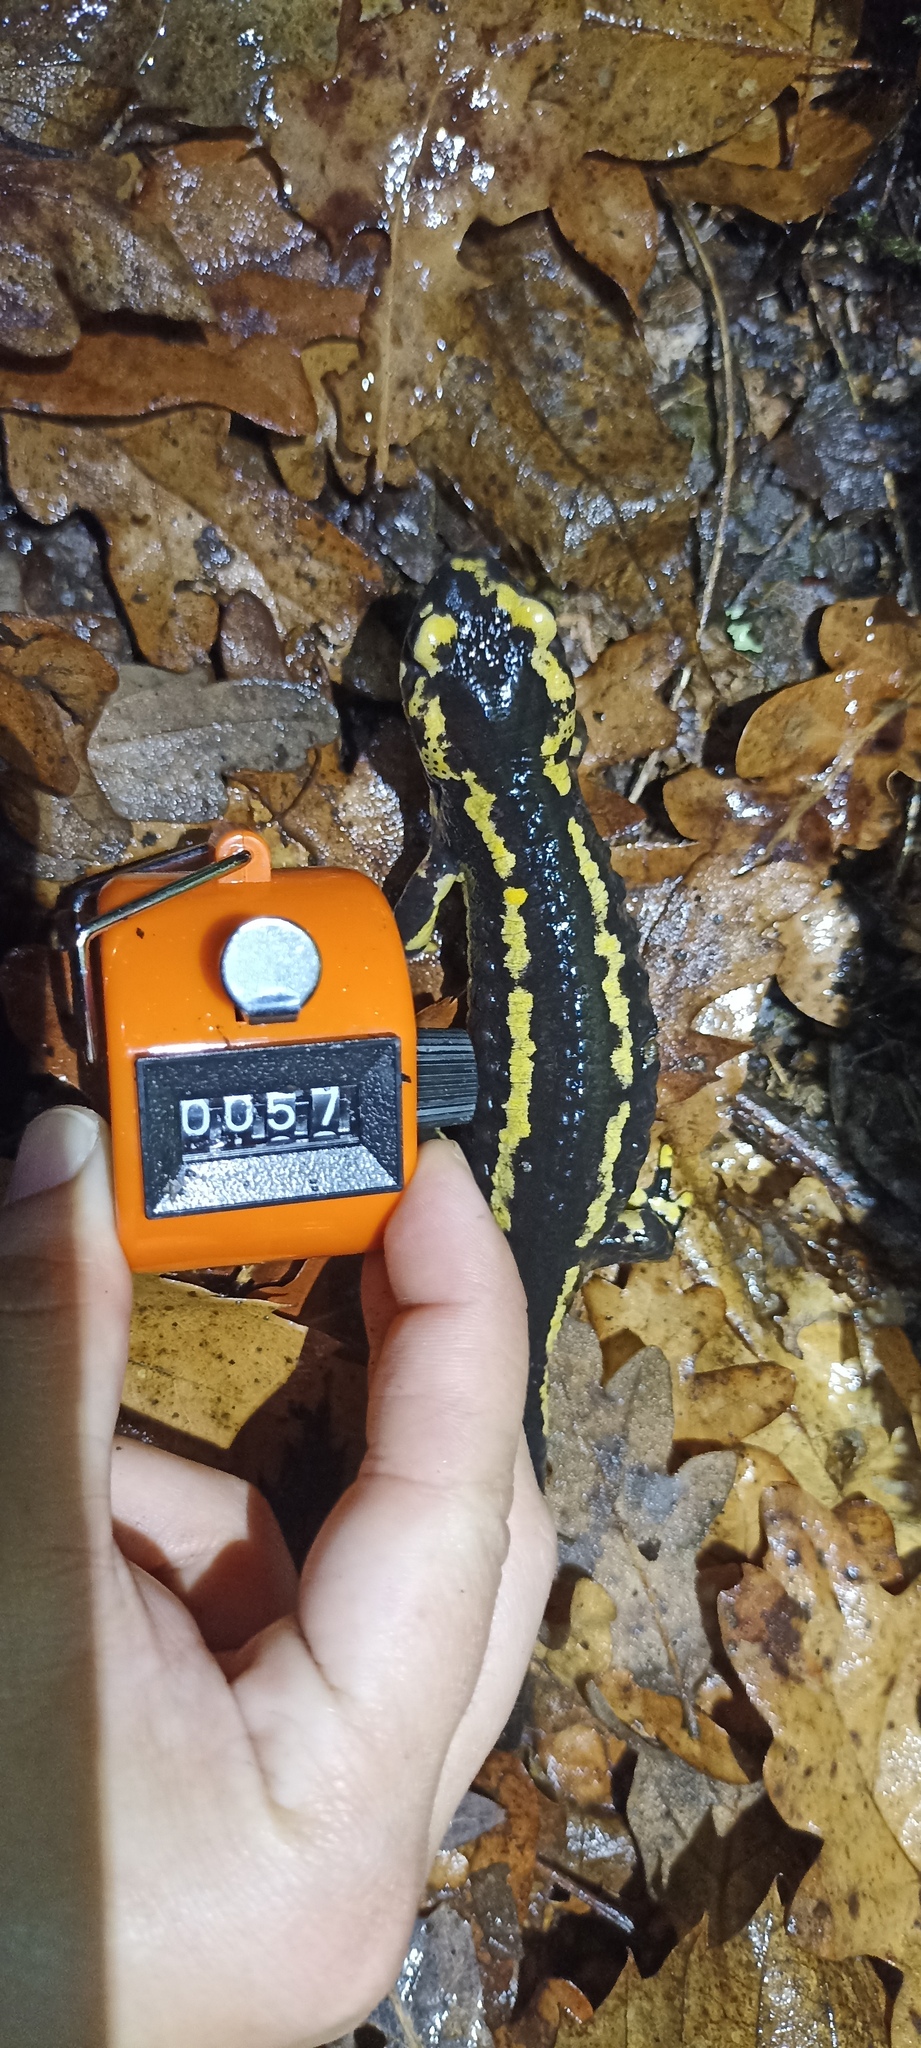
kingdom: Animalia
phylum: Chordata
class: Amphibia
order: Caudata
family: Salamandridae
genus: Salamandra
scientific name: Salamandra salamandra
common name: Fire salamander
